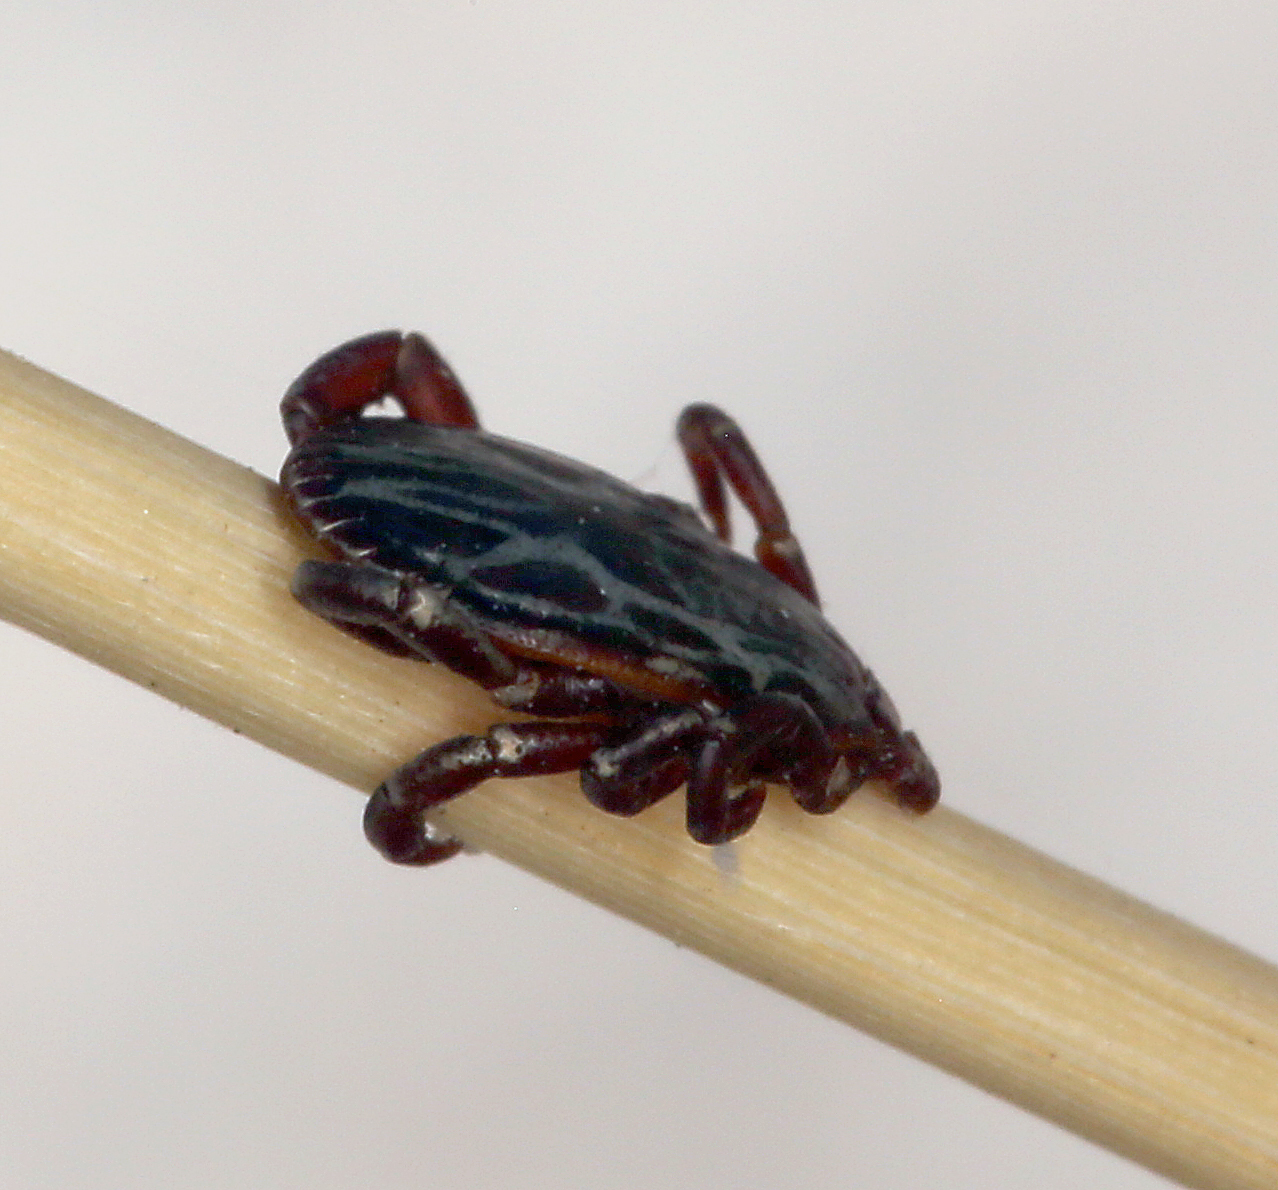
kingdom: Animalia
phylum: Arthropoda
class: Arachnida
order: Ixodida
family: Ixodidae
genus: Dermacentor
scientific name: Dermacentor hunteri
